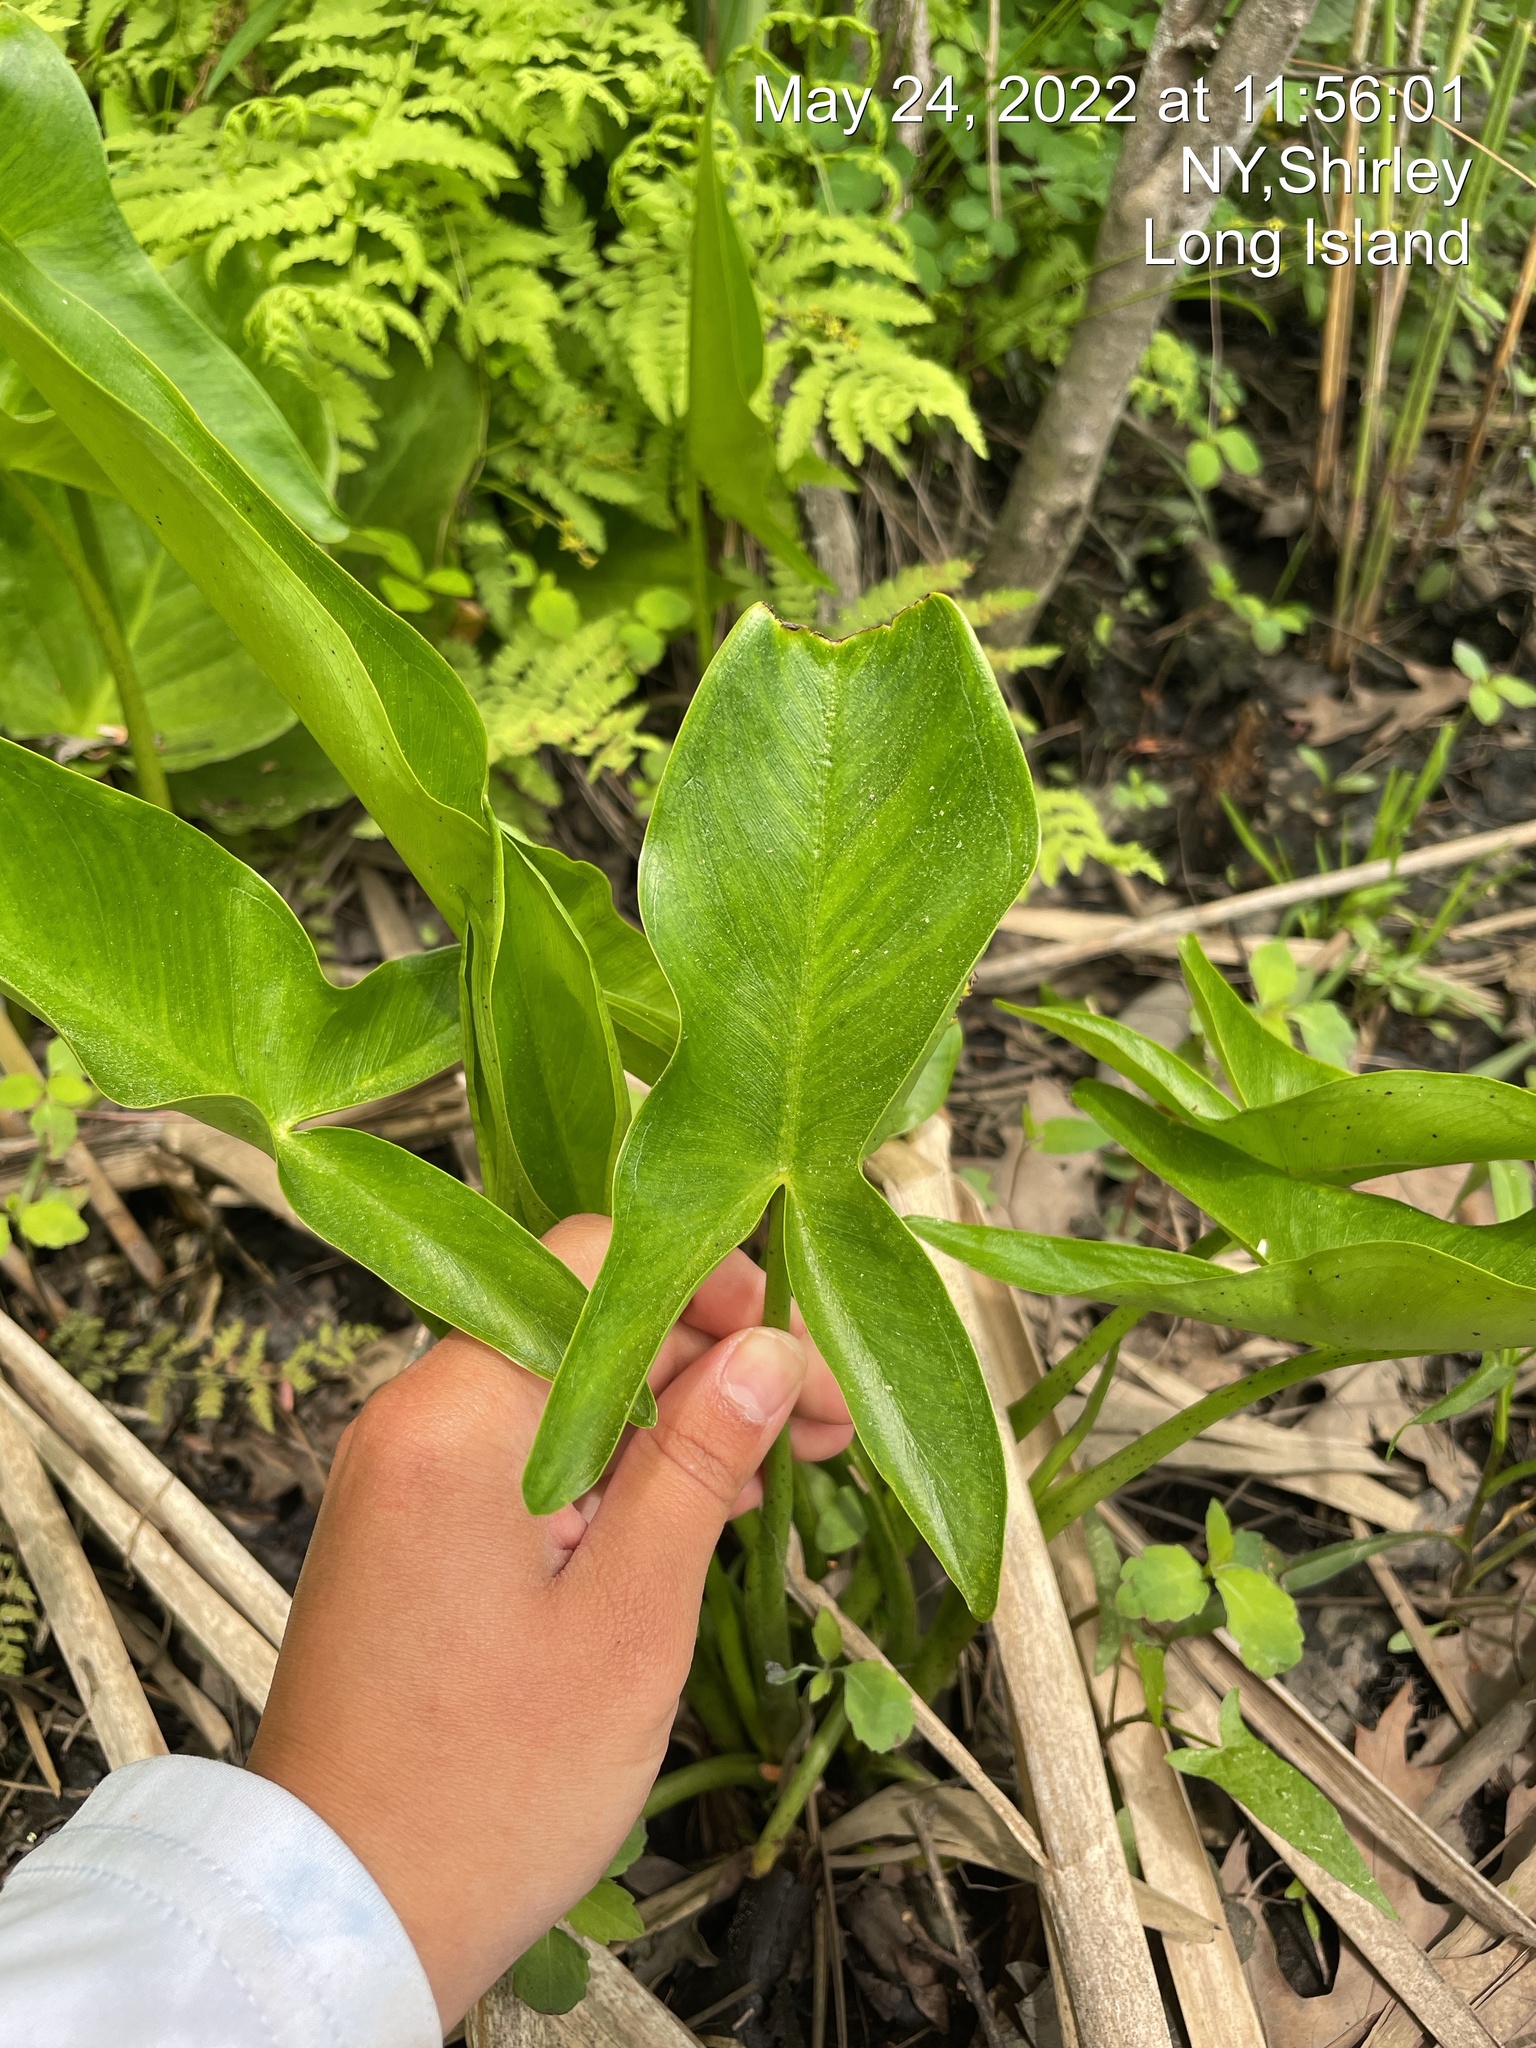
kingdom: Plantae
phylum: Tracheophyta
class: Liliopsida
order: Alismatales
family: Araceae
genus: Peltandra
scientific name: Peltandra virginica
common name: Arrow arum
